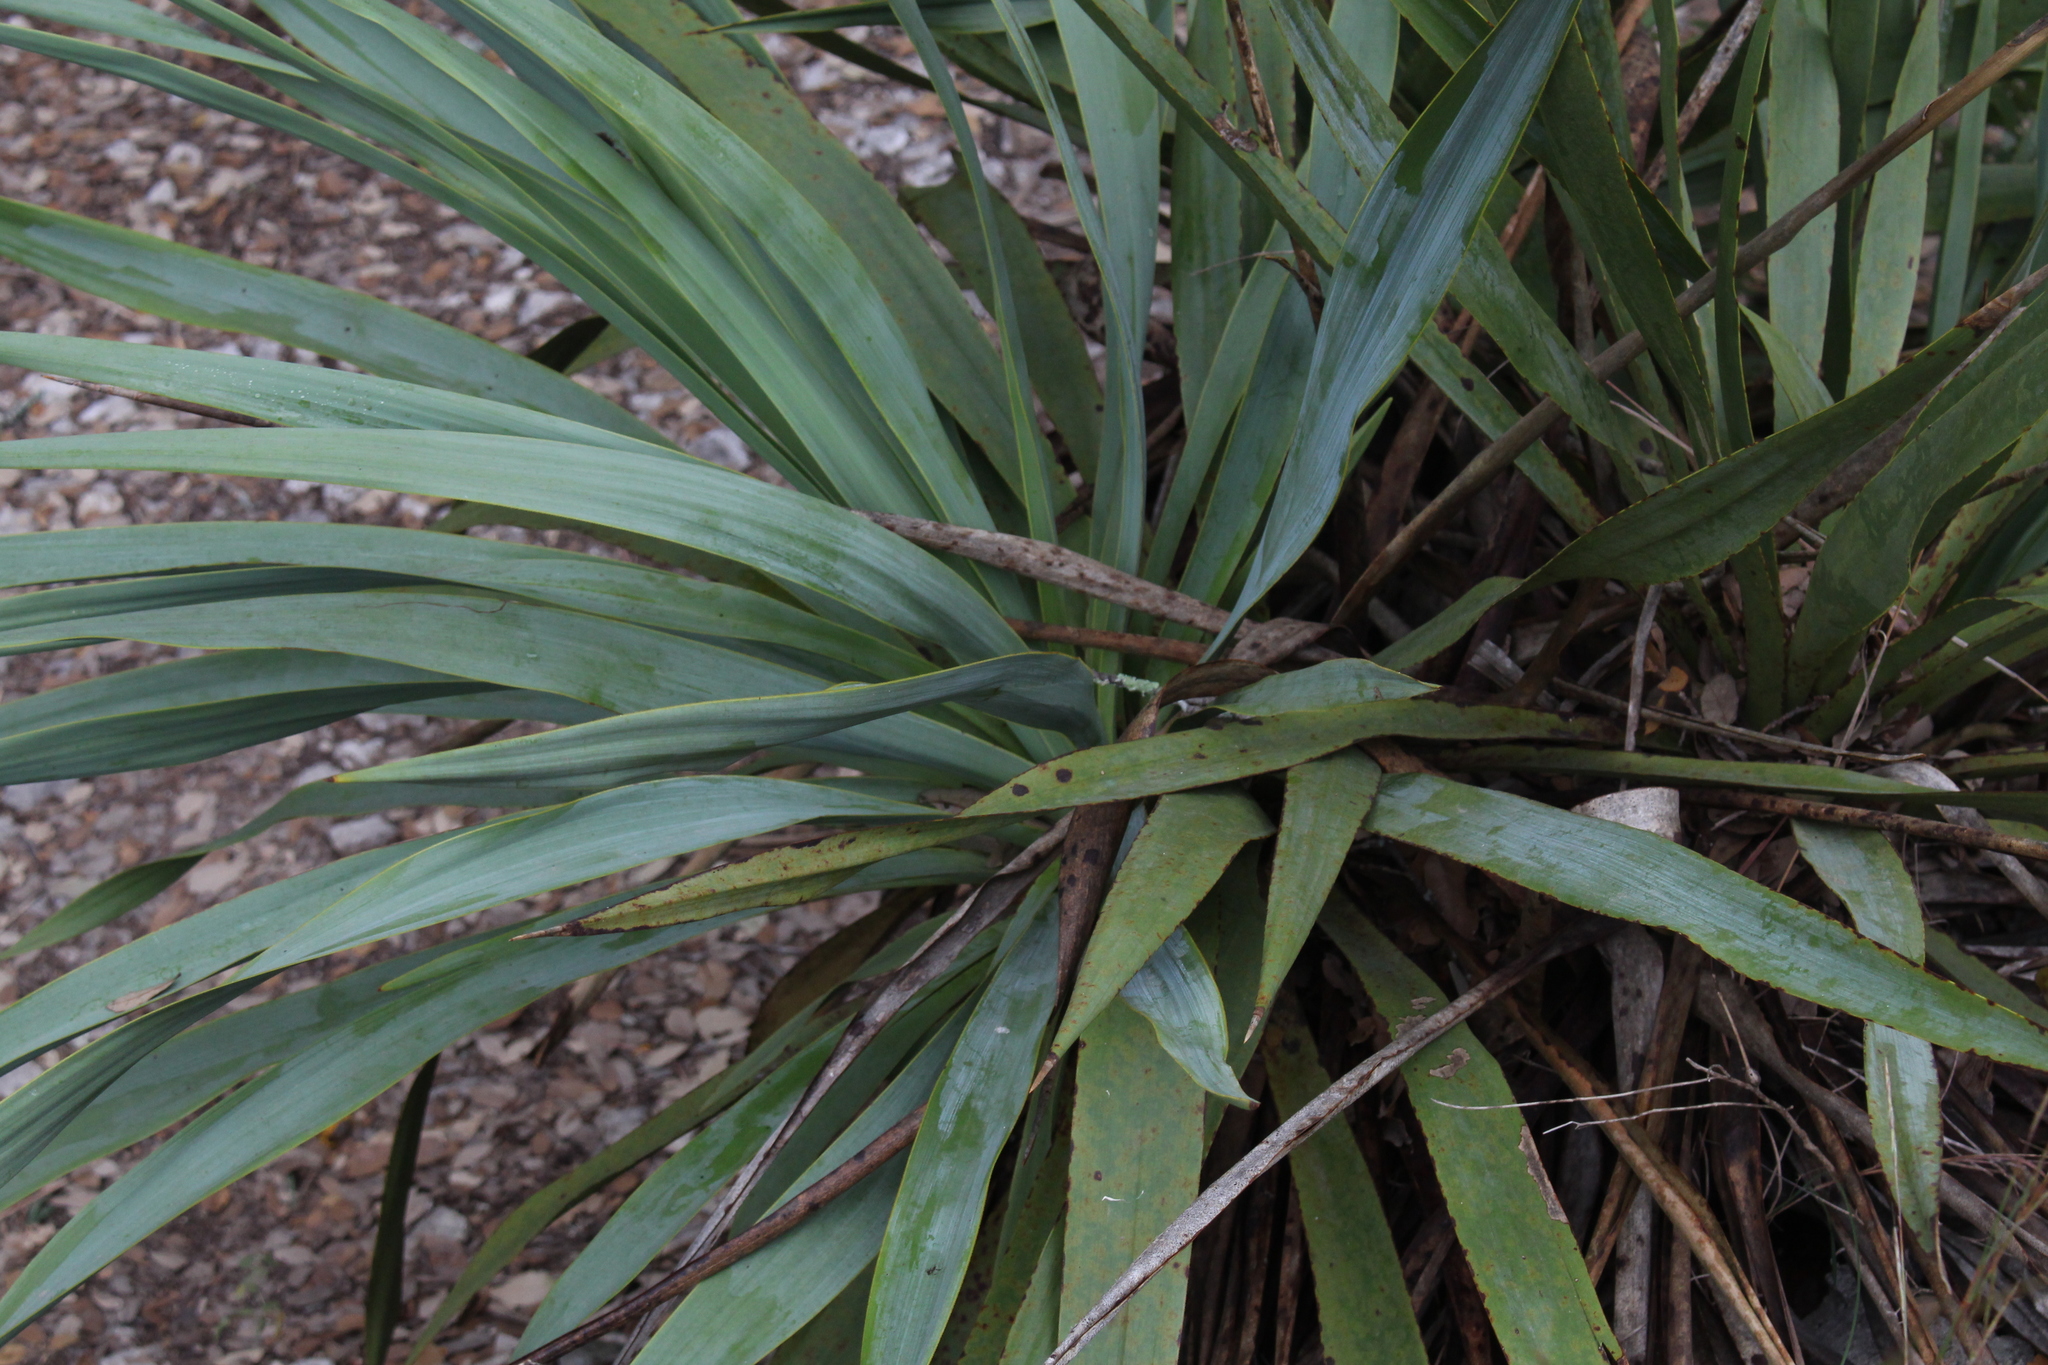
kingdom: Plantae
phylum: Tracheophyta
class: Liliopsida
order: Asparagales
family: Asparagaceae
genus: Yucca
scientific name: Yucca rupicola
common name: Twisted-leaf spanish-dagger
